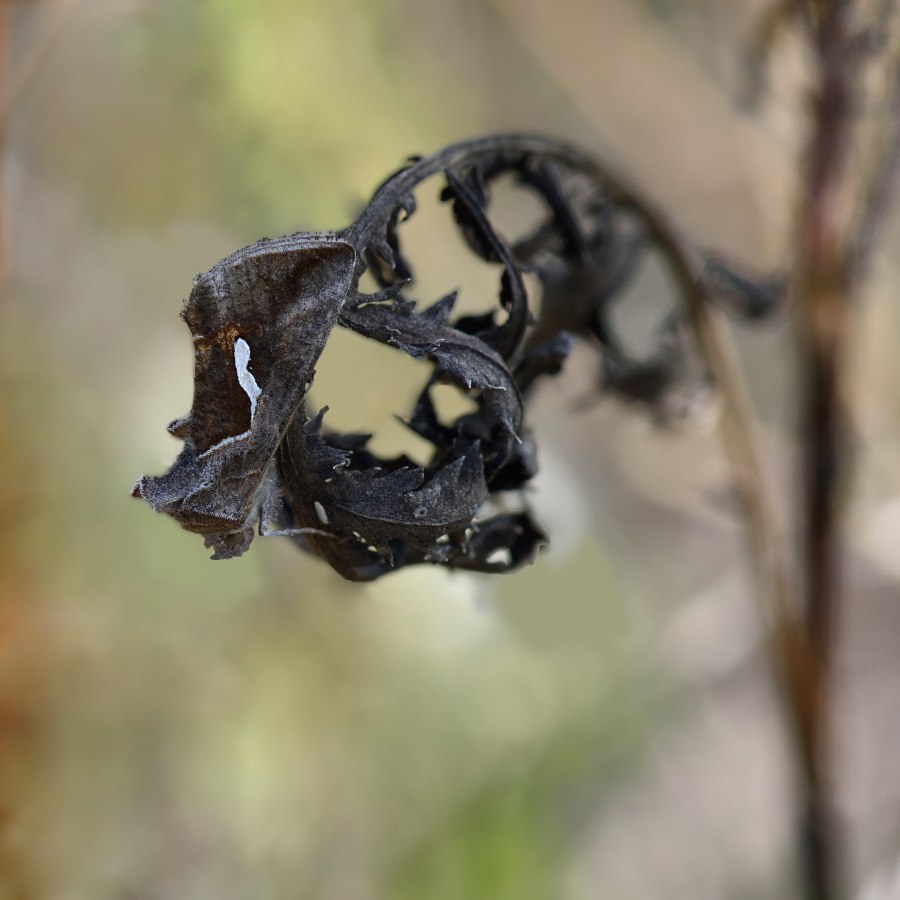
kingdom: Animalia
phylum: Arthropoda
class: Insecta
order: Lepidoptera
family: Noctuidae
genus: Macdunnoughia
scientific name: Macdunnoughia confusa
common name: Dewick's plusia
